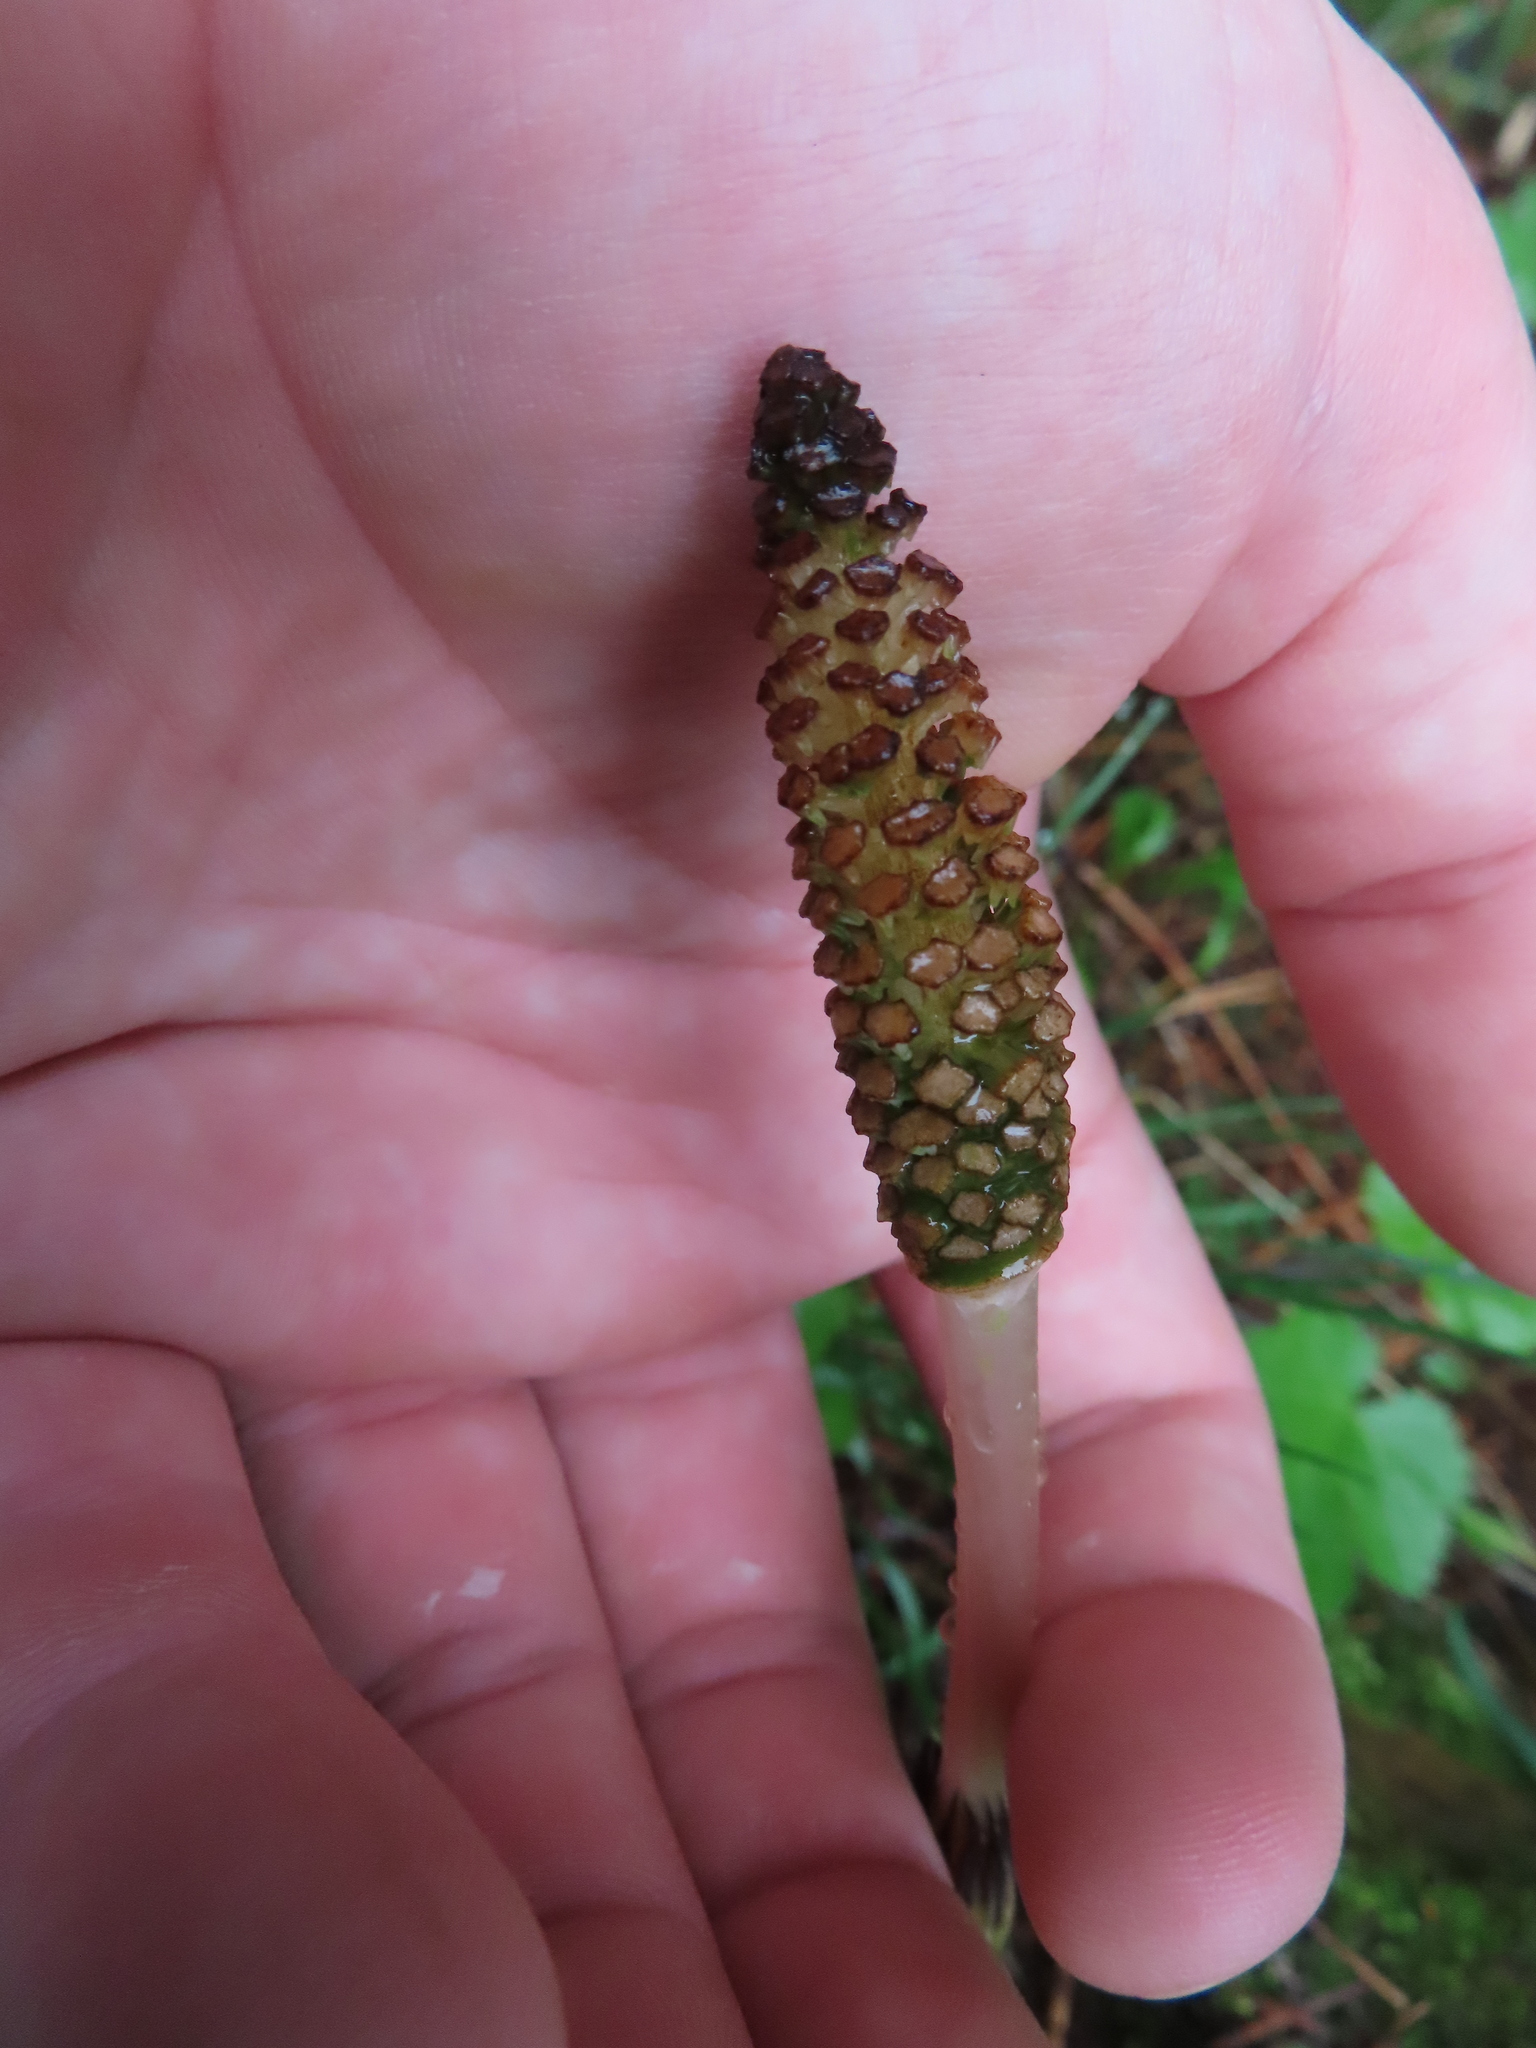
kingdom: Plantae
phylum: Tracheophyta
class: Polypodiopsida
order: Equisetales
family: Equisetaceae
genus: Equisetum
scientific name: Equisetum arvense
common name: Field horsetail
